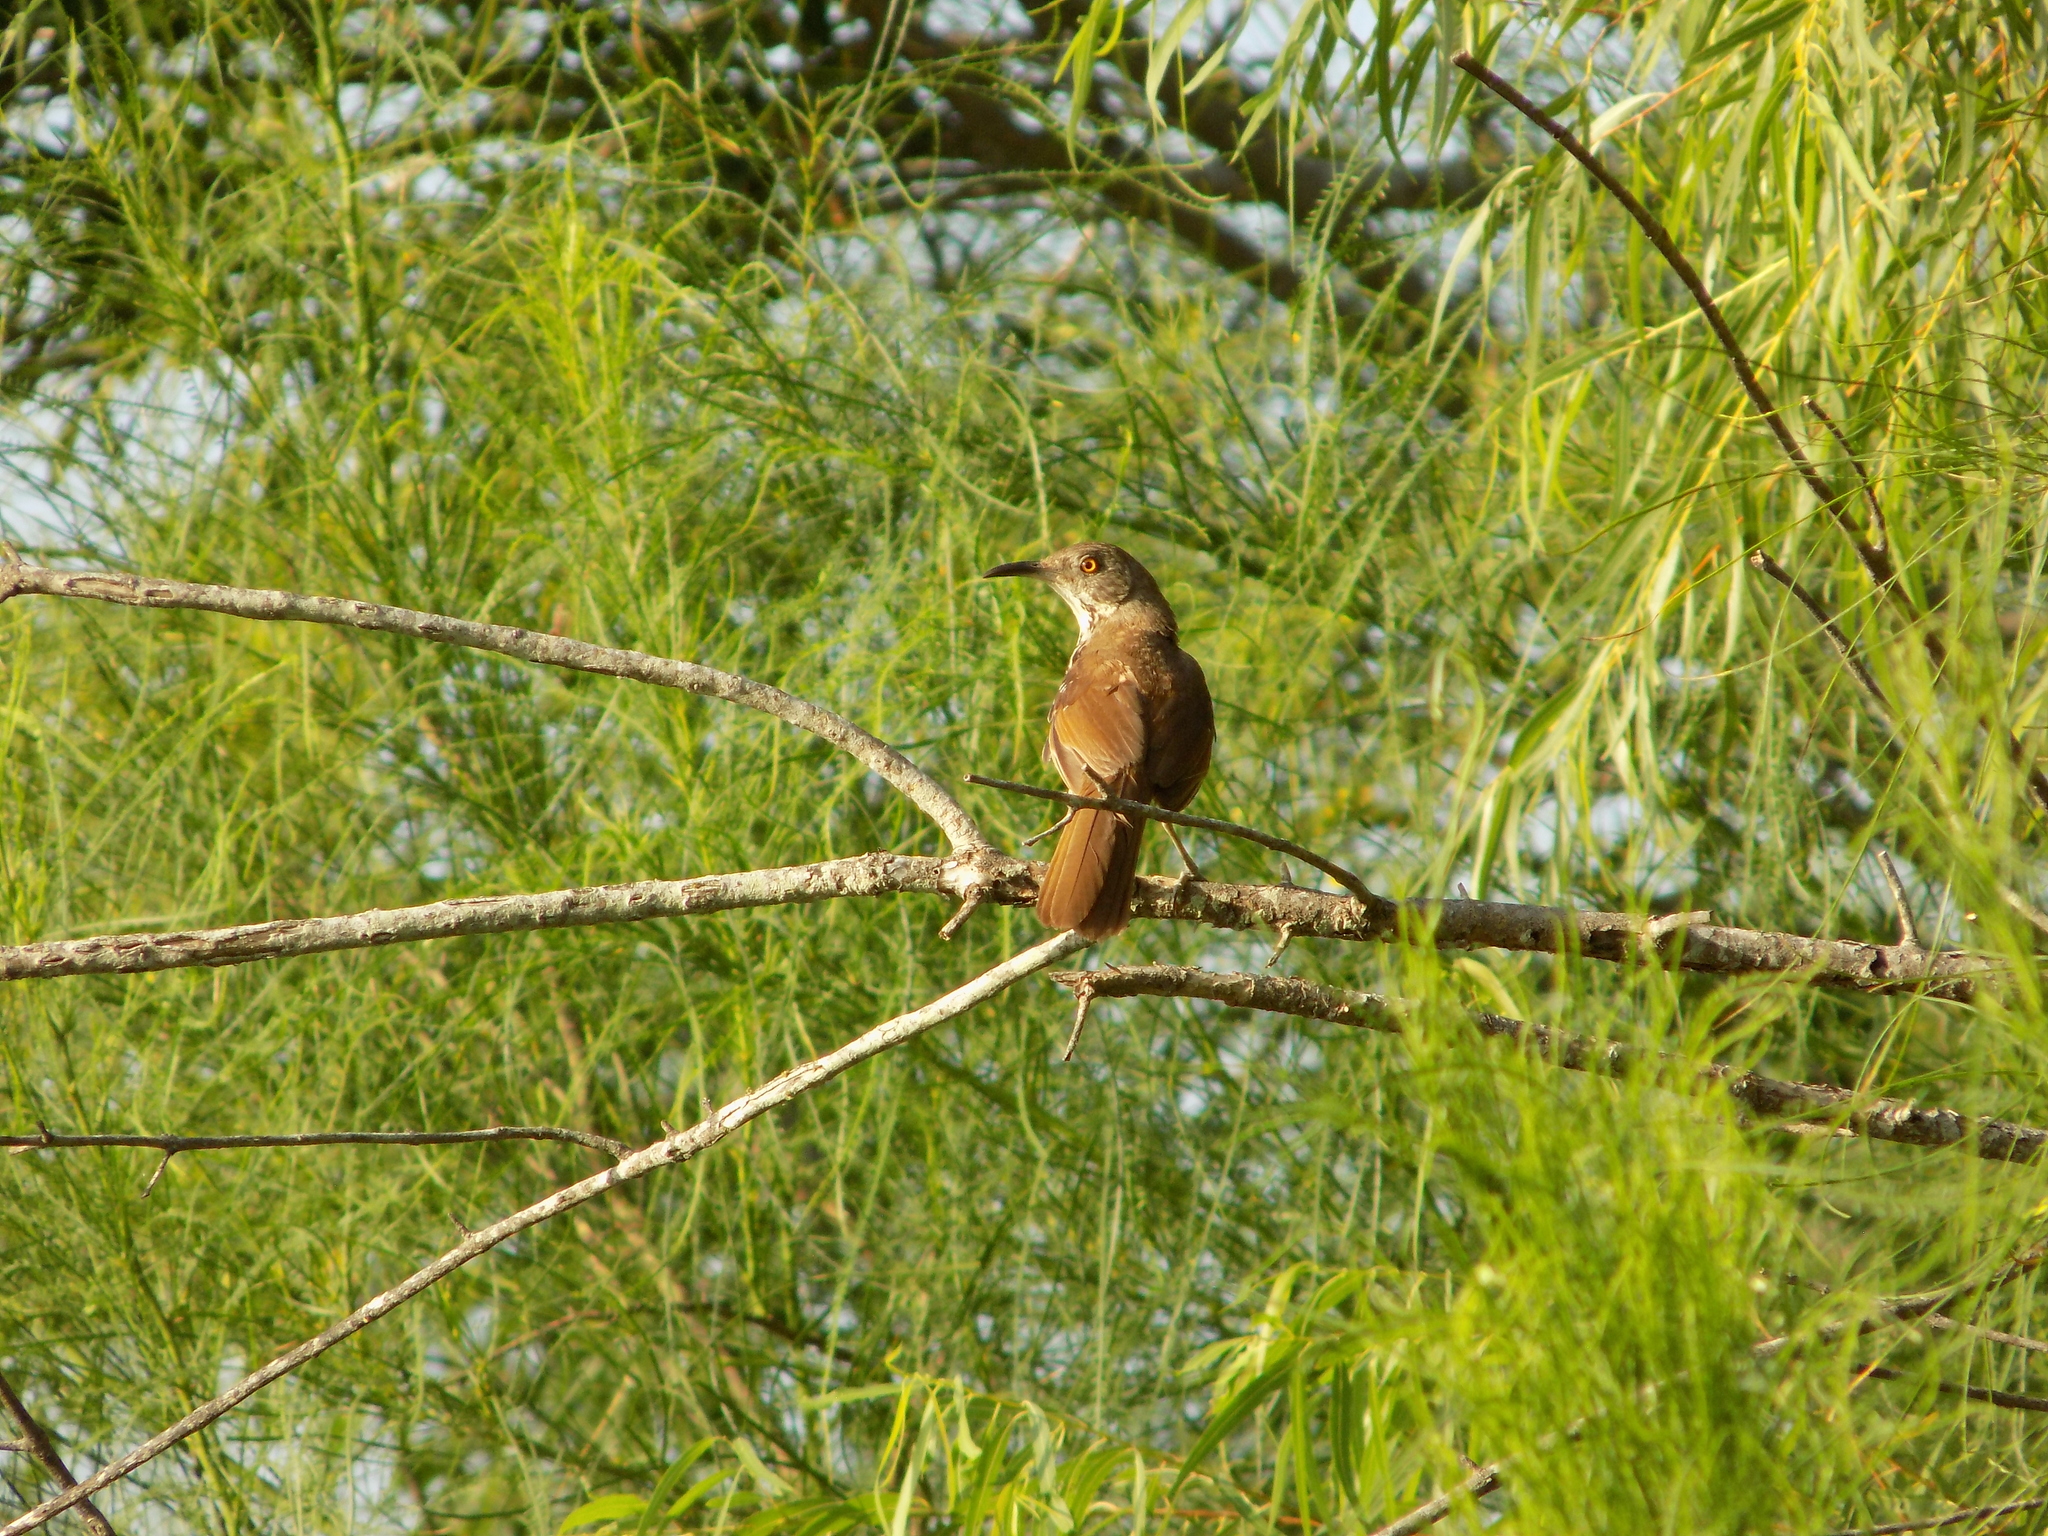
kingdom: Animalia
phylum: Chordata
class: Aves
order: Passeriformes
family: Mimidae
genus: Toxostoma
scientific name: Toxostoma longirostre
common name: Long-billed thrasher
